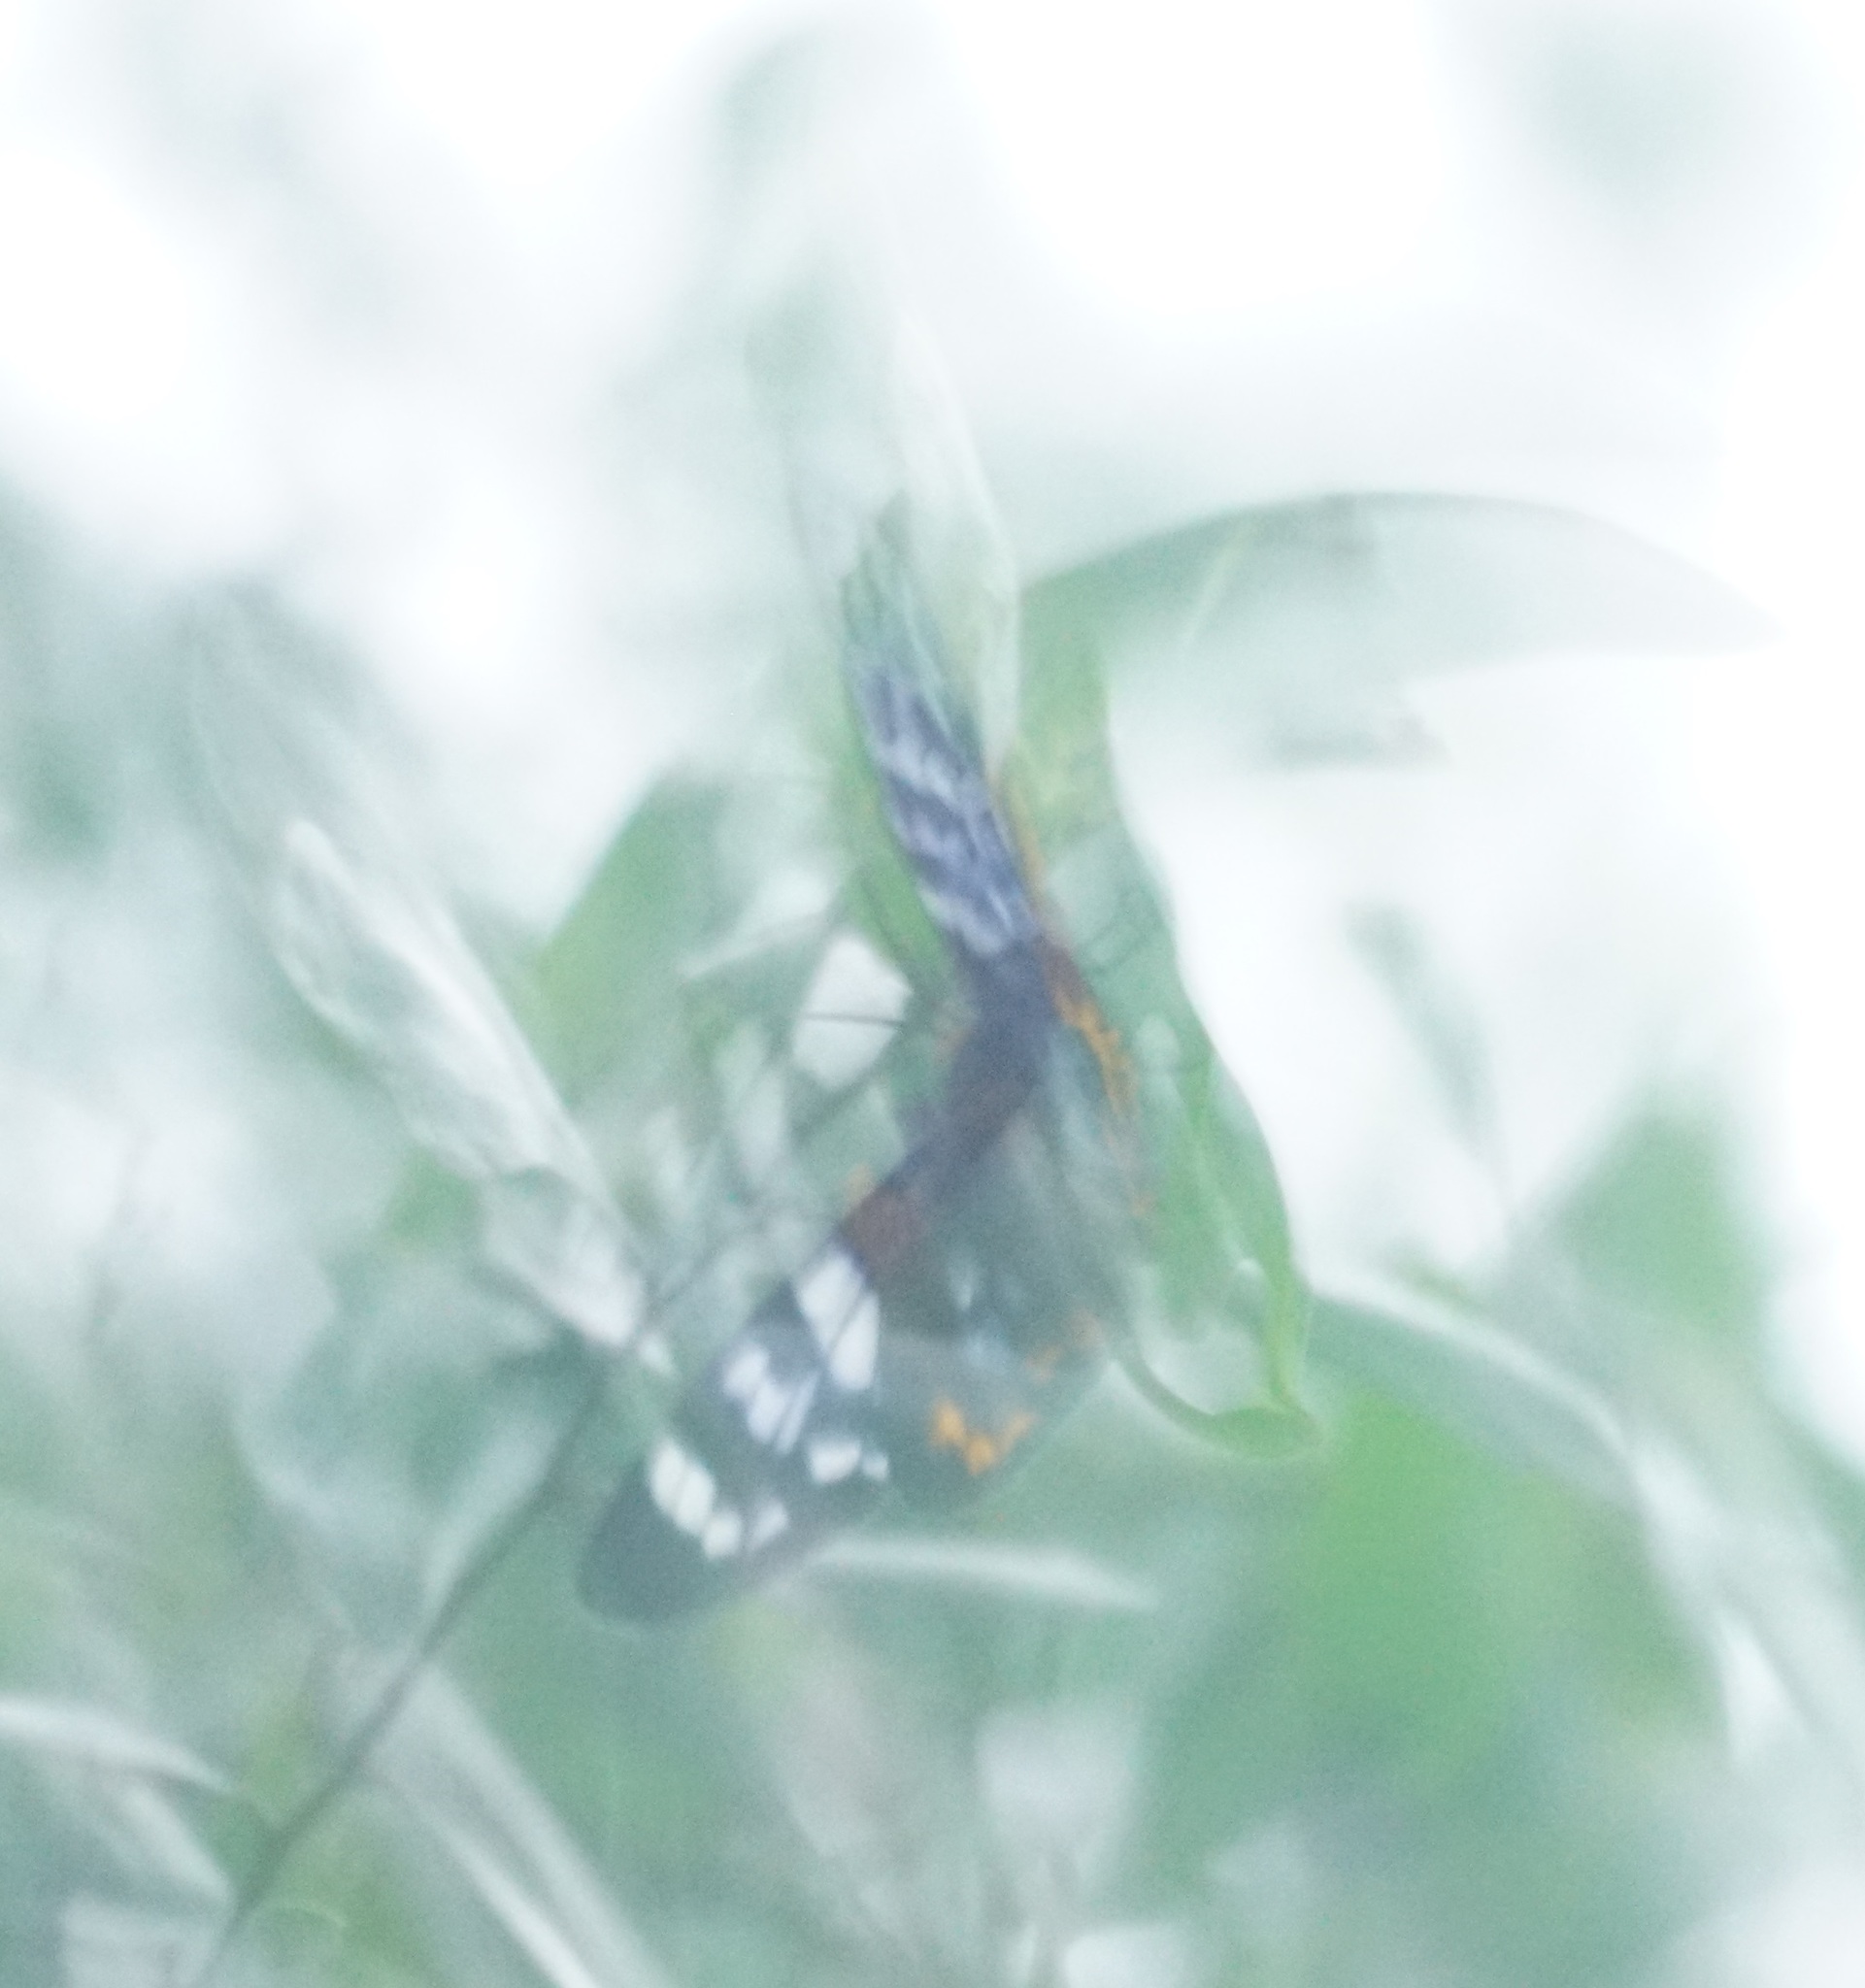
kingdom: Animalia
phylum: Arthropoda
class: Insecta
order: Lepidoptera
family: Geometridae
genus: Dysphania
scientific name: Dysphania numana
